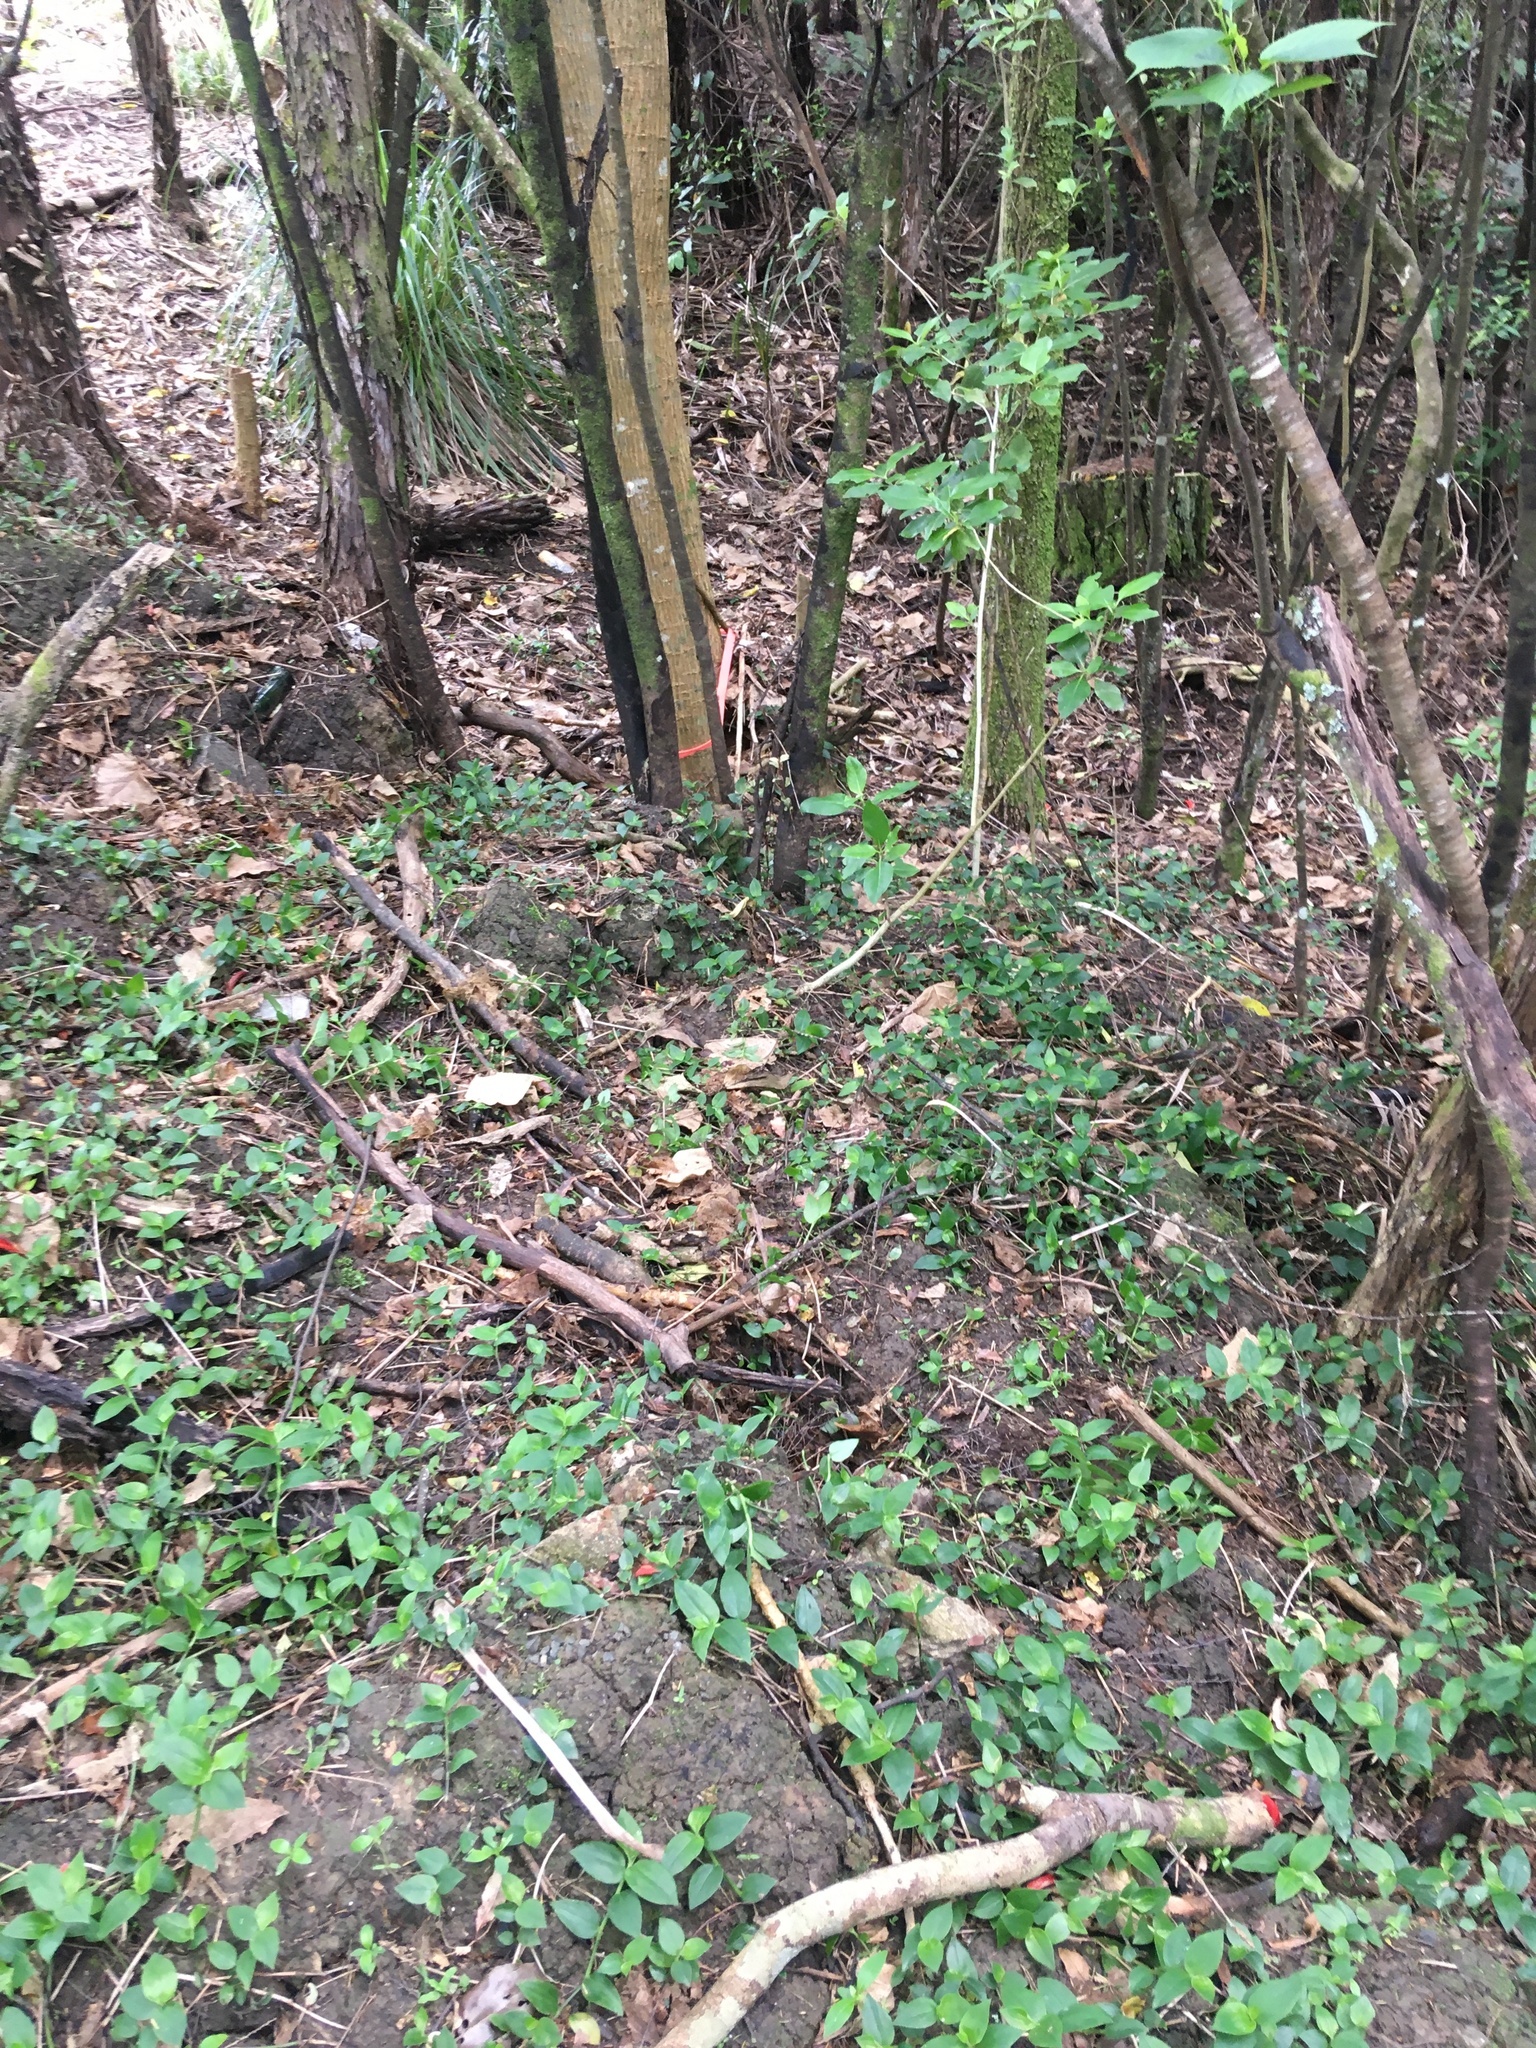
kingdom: Plantae
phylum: Tracheophyta
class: Liliopsida
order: Commelinales
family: Commelinaceae
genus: Tradescantia
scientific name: Tradescantia fluminensis
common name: Wandering-jew
